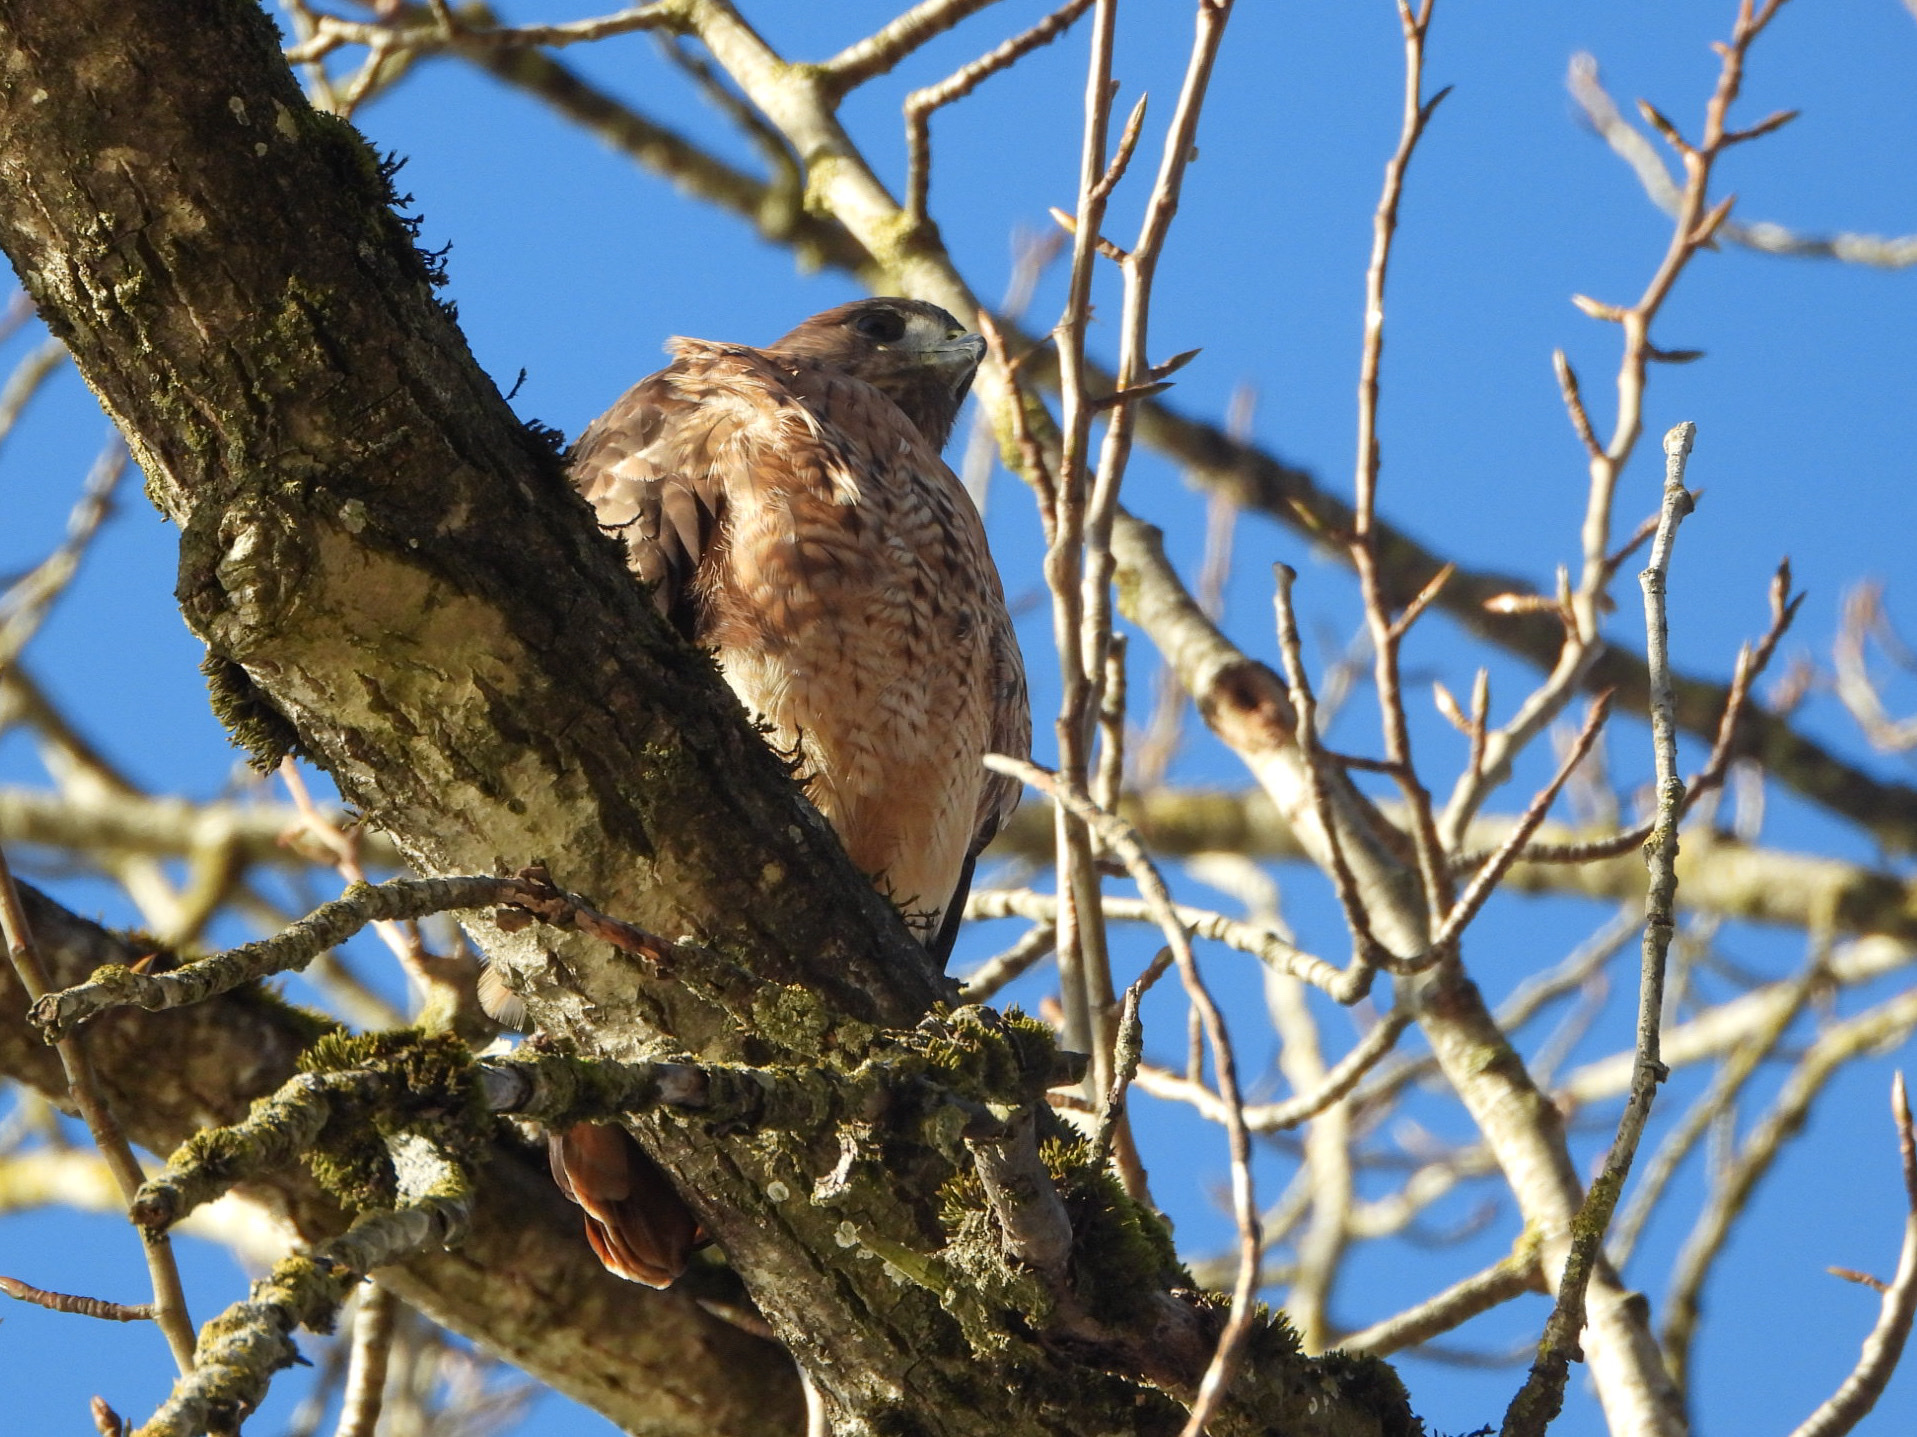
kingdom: Animalia
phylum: Chordata
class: Aves
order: Accipitriformes
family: Accipitridae
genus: Buteo
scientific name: Buteo jamaicensis
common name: Red-tailed hawk
